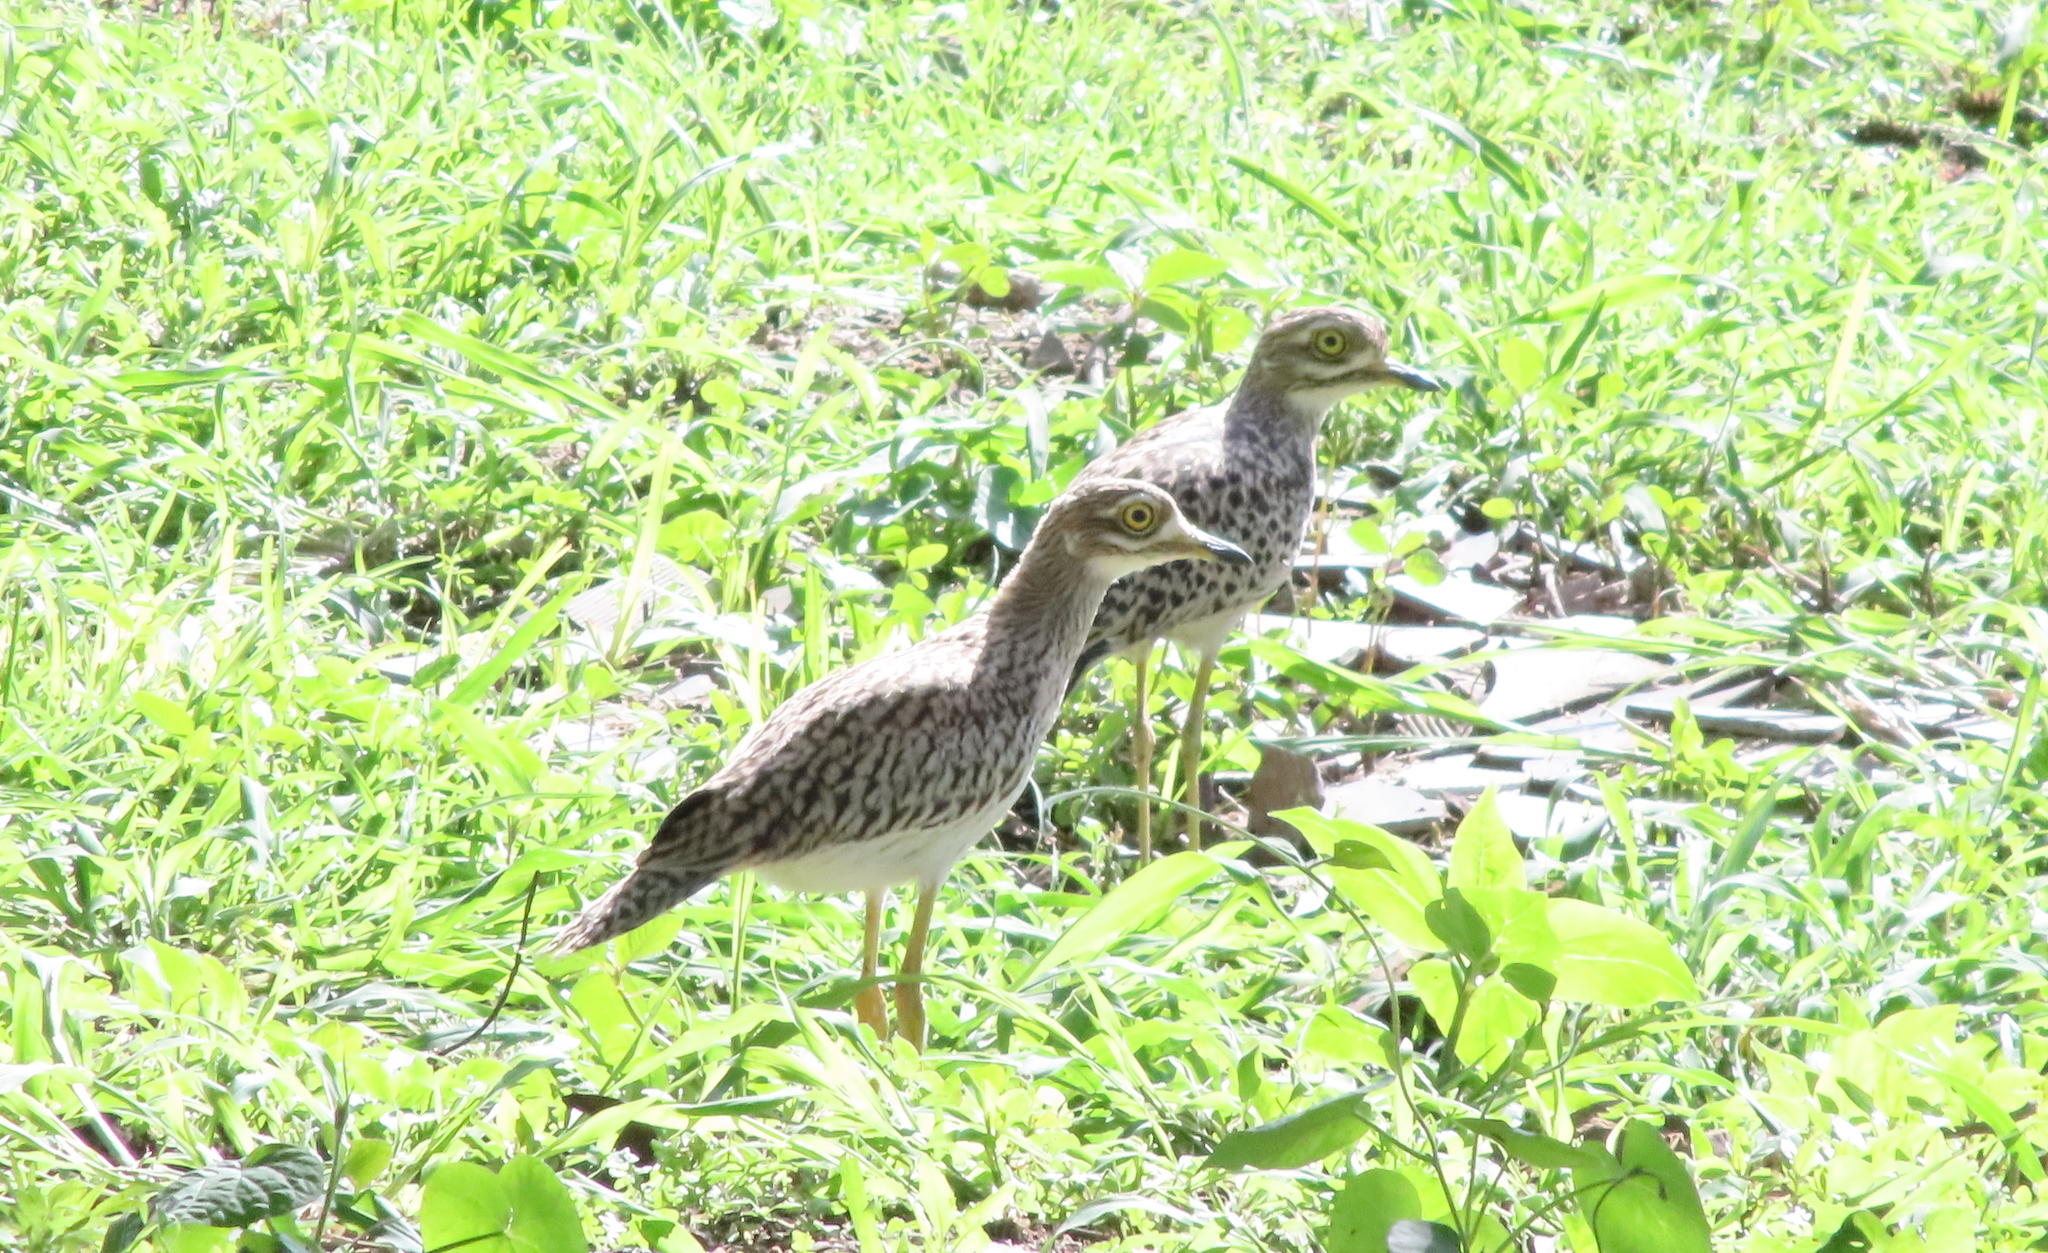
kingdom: Animalia
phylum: Chordata
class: Aves
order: Charadriiformes
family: Burhinidae
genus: Burhinus
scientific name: Burhinus capensis
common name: Spotted thick-knee
